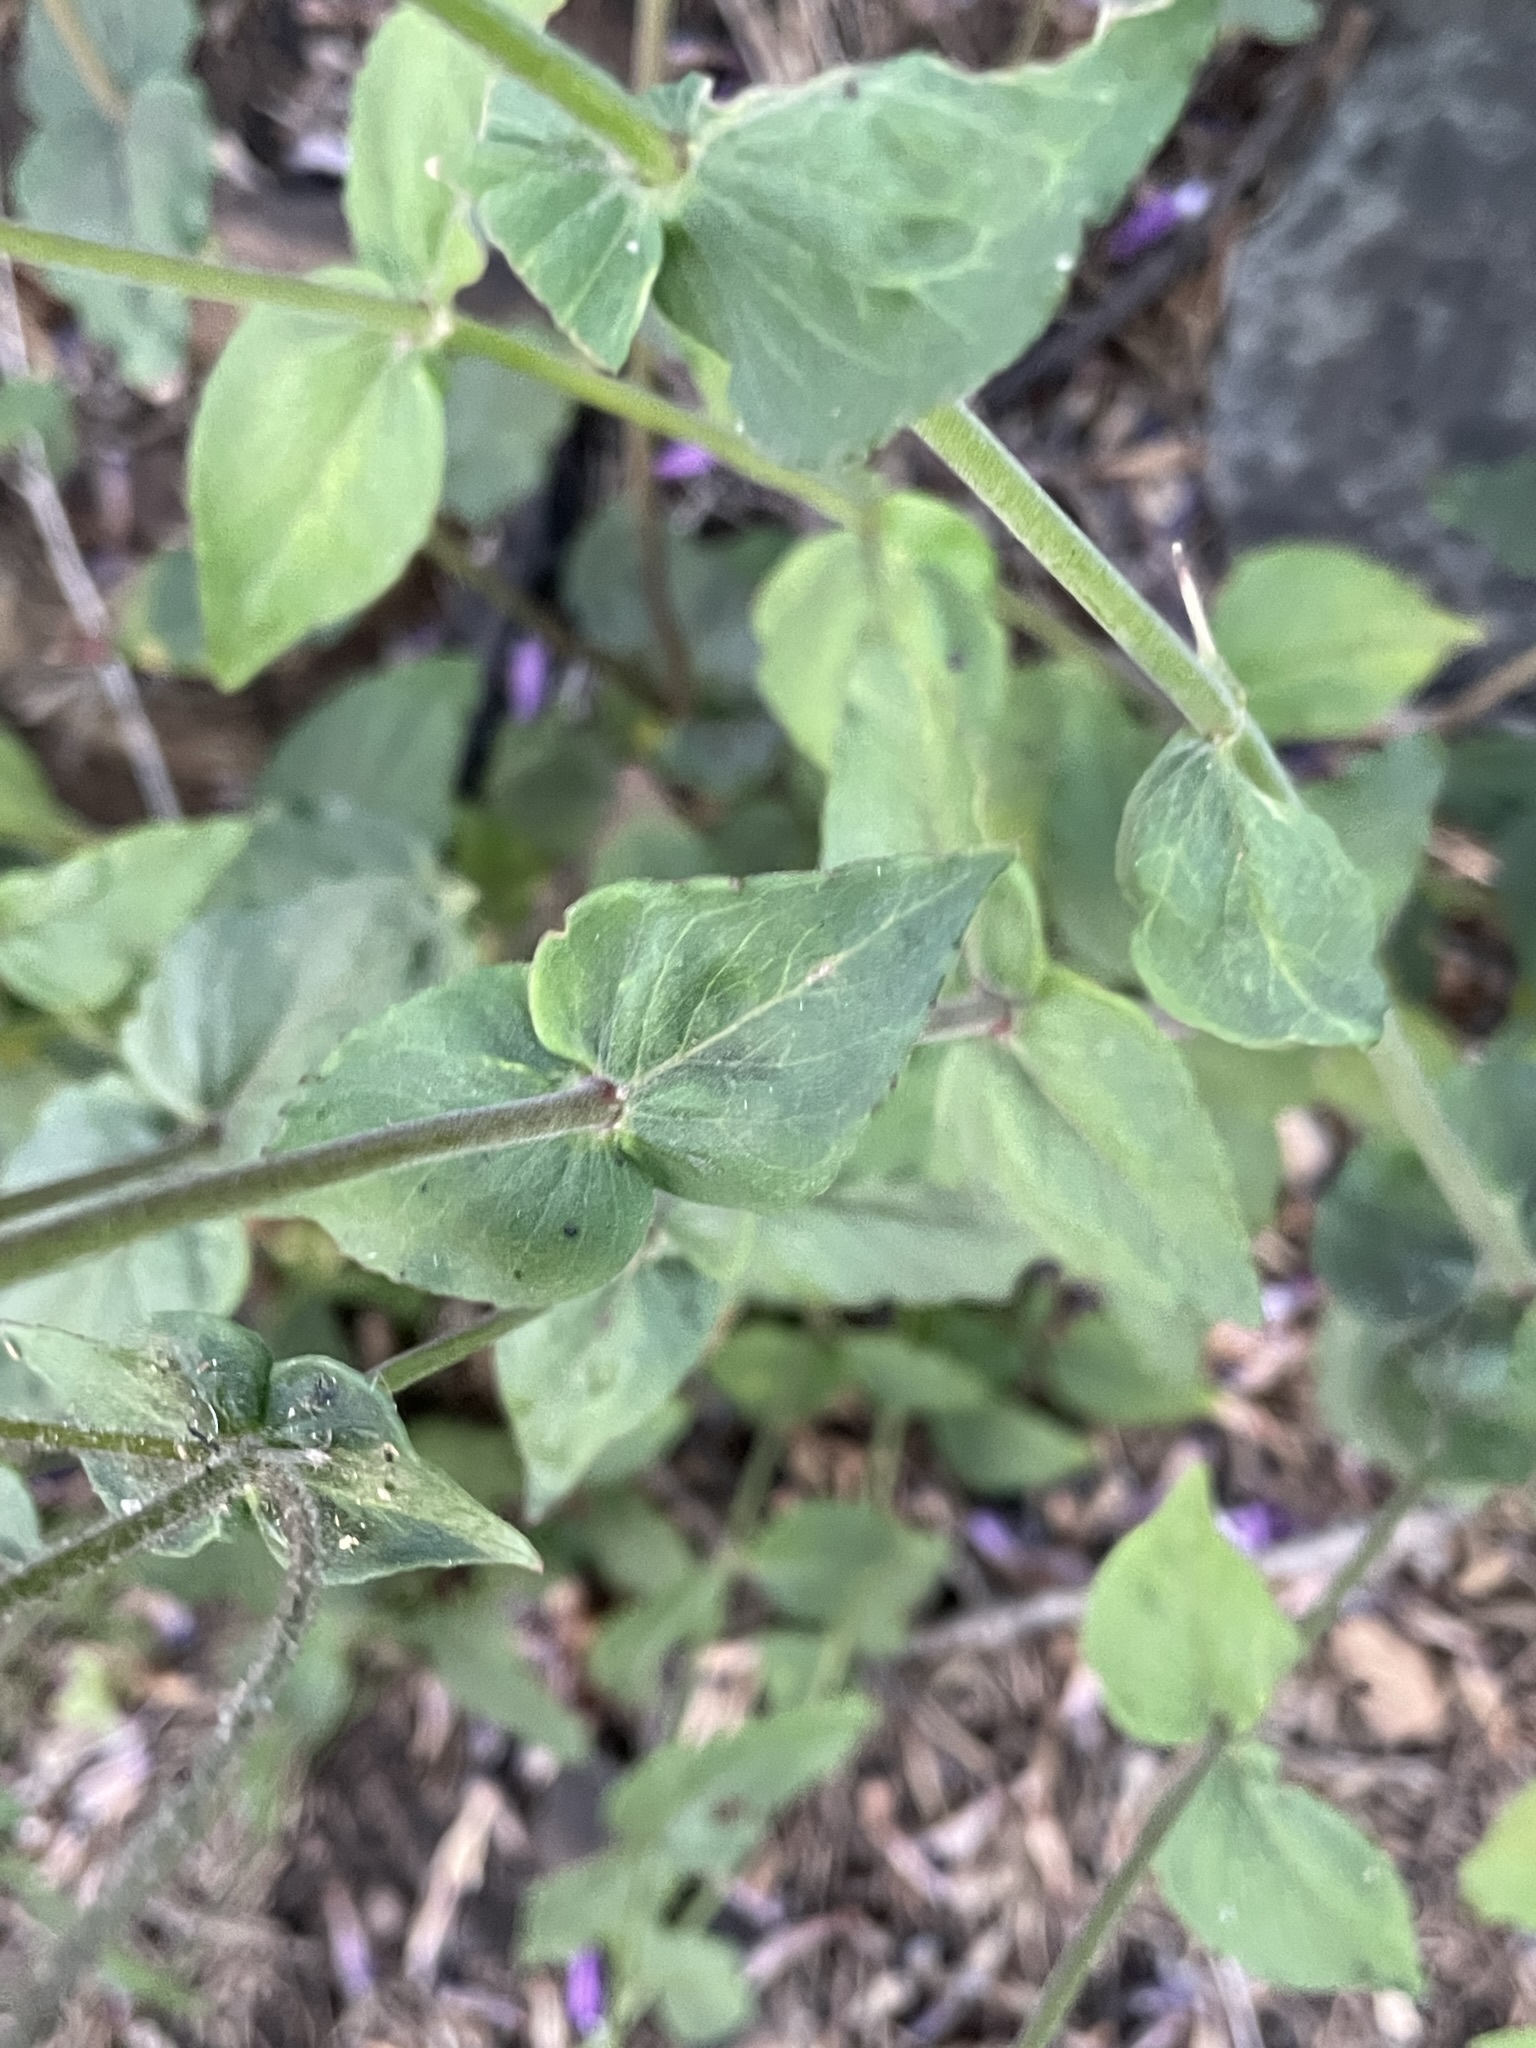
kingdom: Plantae
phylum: Tracheophyta
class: Magnoliopsida
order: Lamiales
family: Plantaginaceae
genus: Penstemon
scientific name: Penstemon personatus
